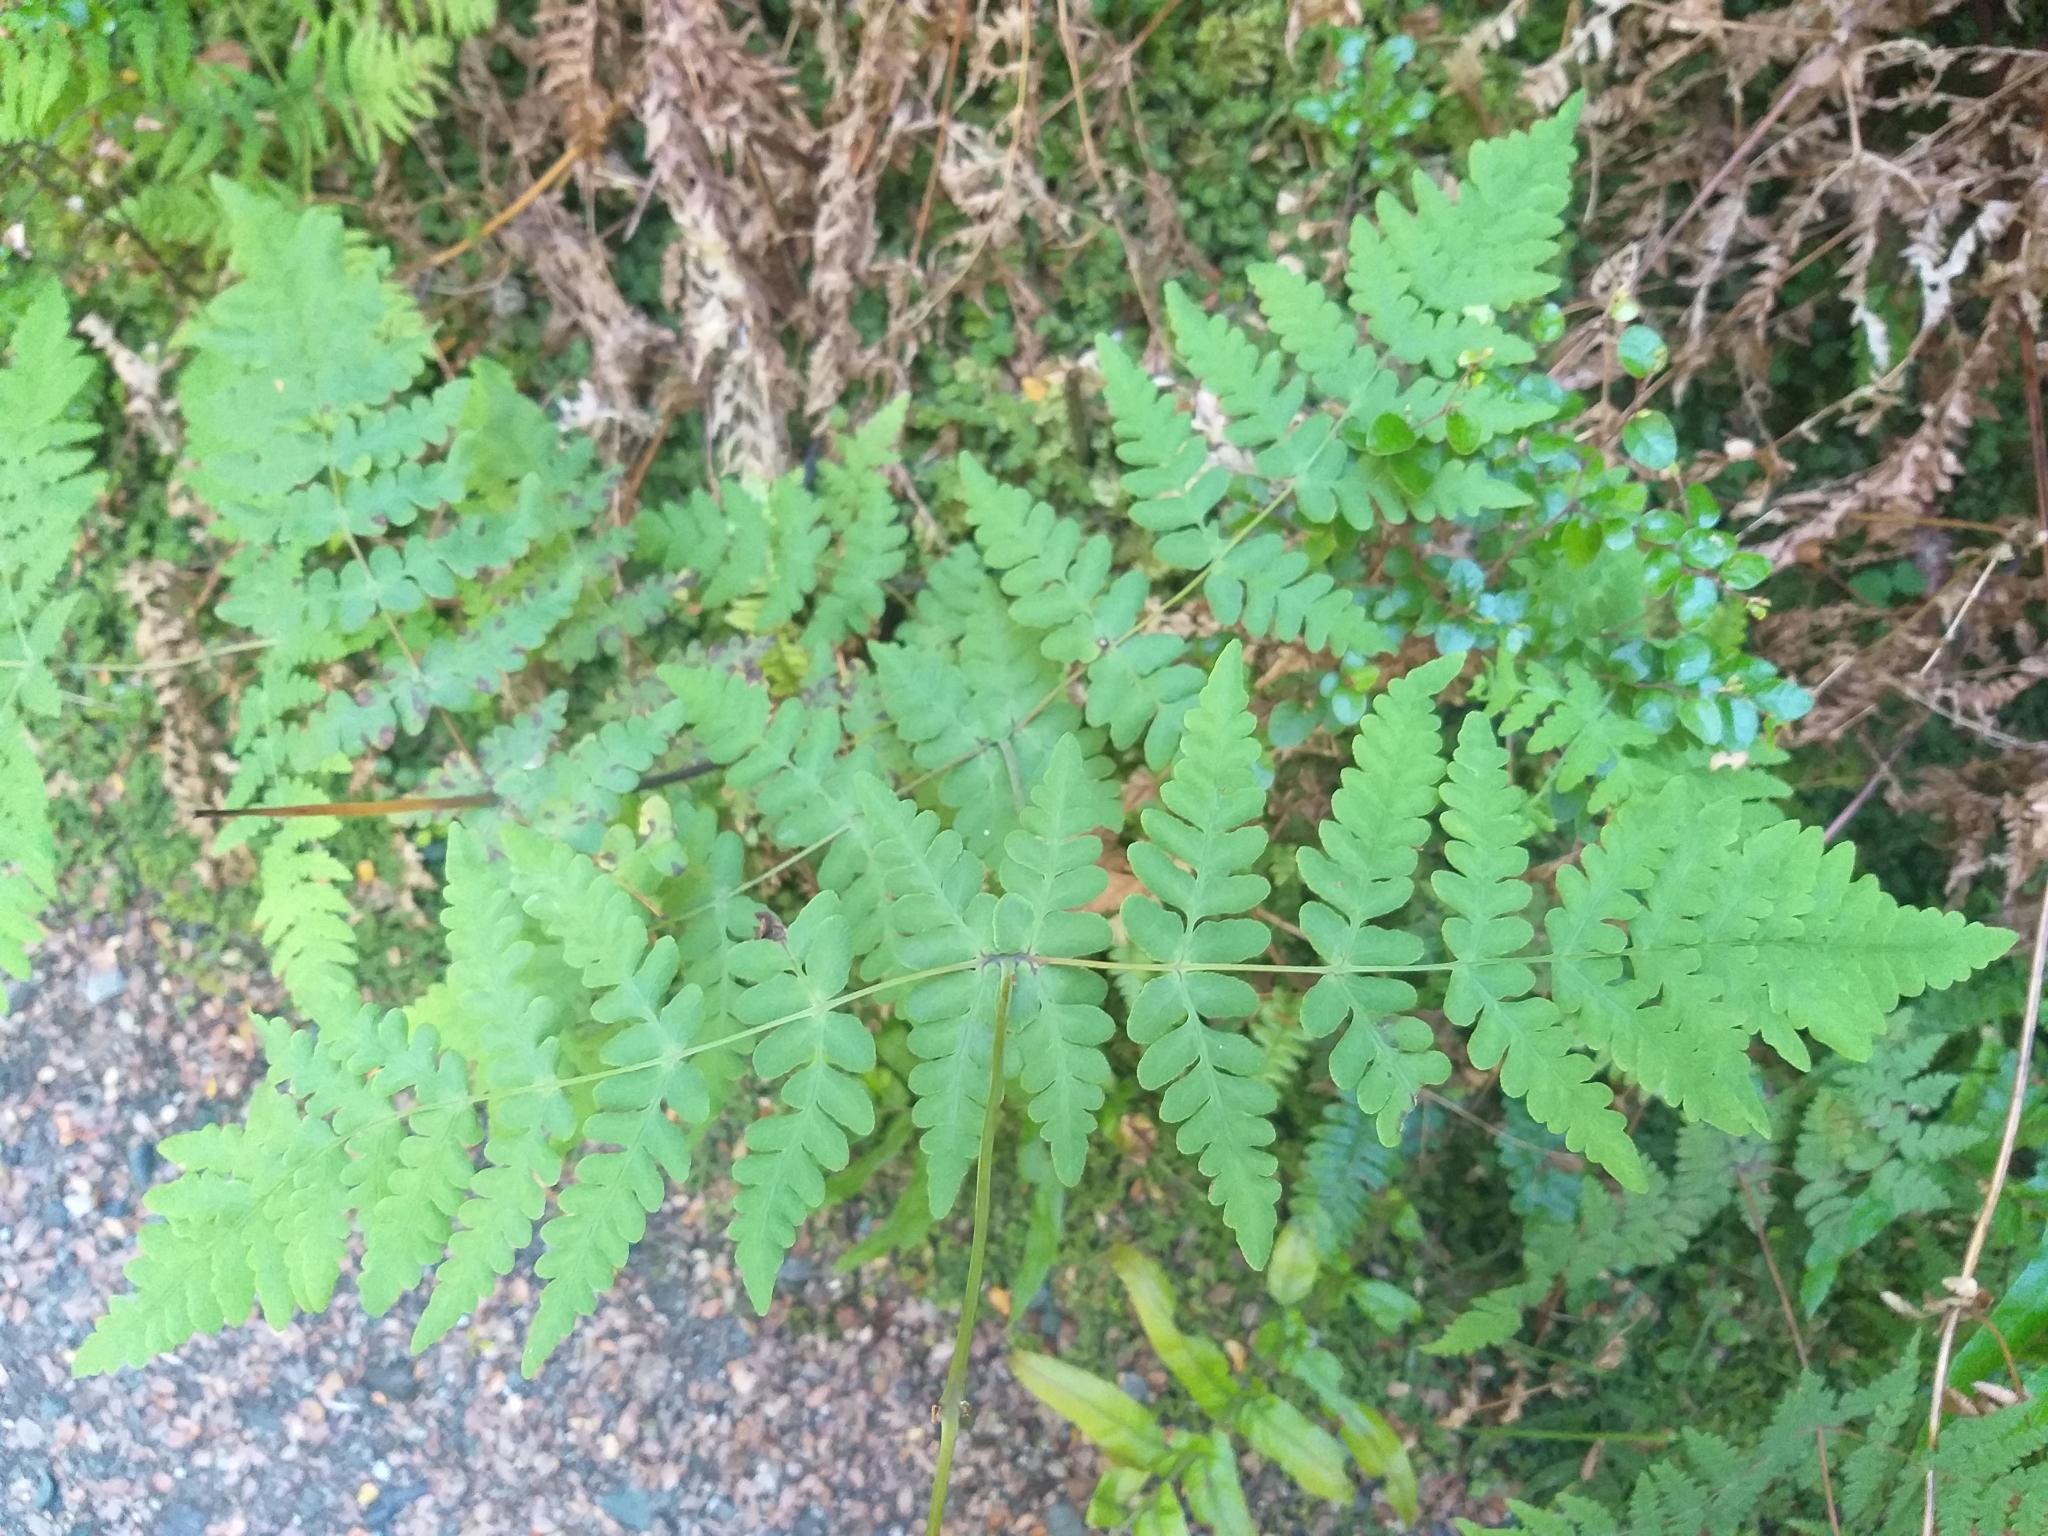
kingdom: Plantae
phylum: Tracheophyta
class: Polypodiopsida
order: Polypodiales
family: Dennstaedtiaceae
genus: Histiopteris
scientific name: Histiopteris incisa
